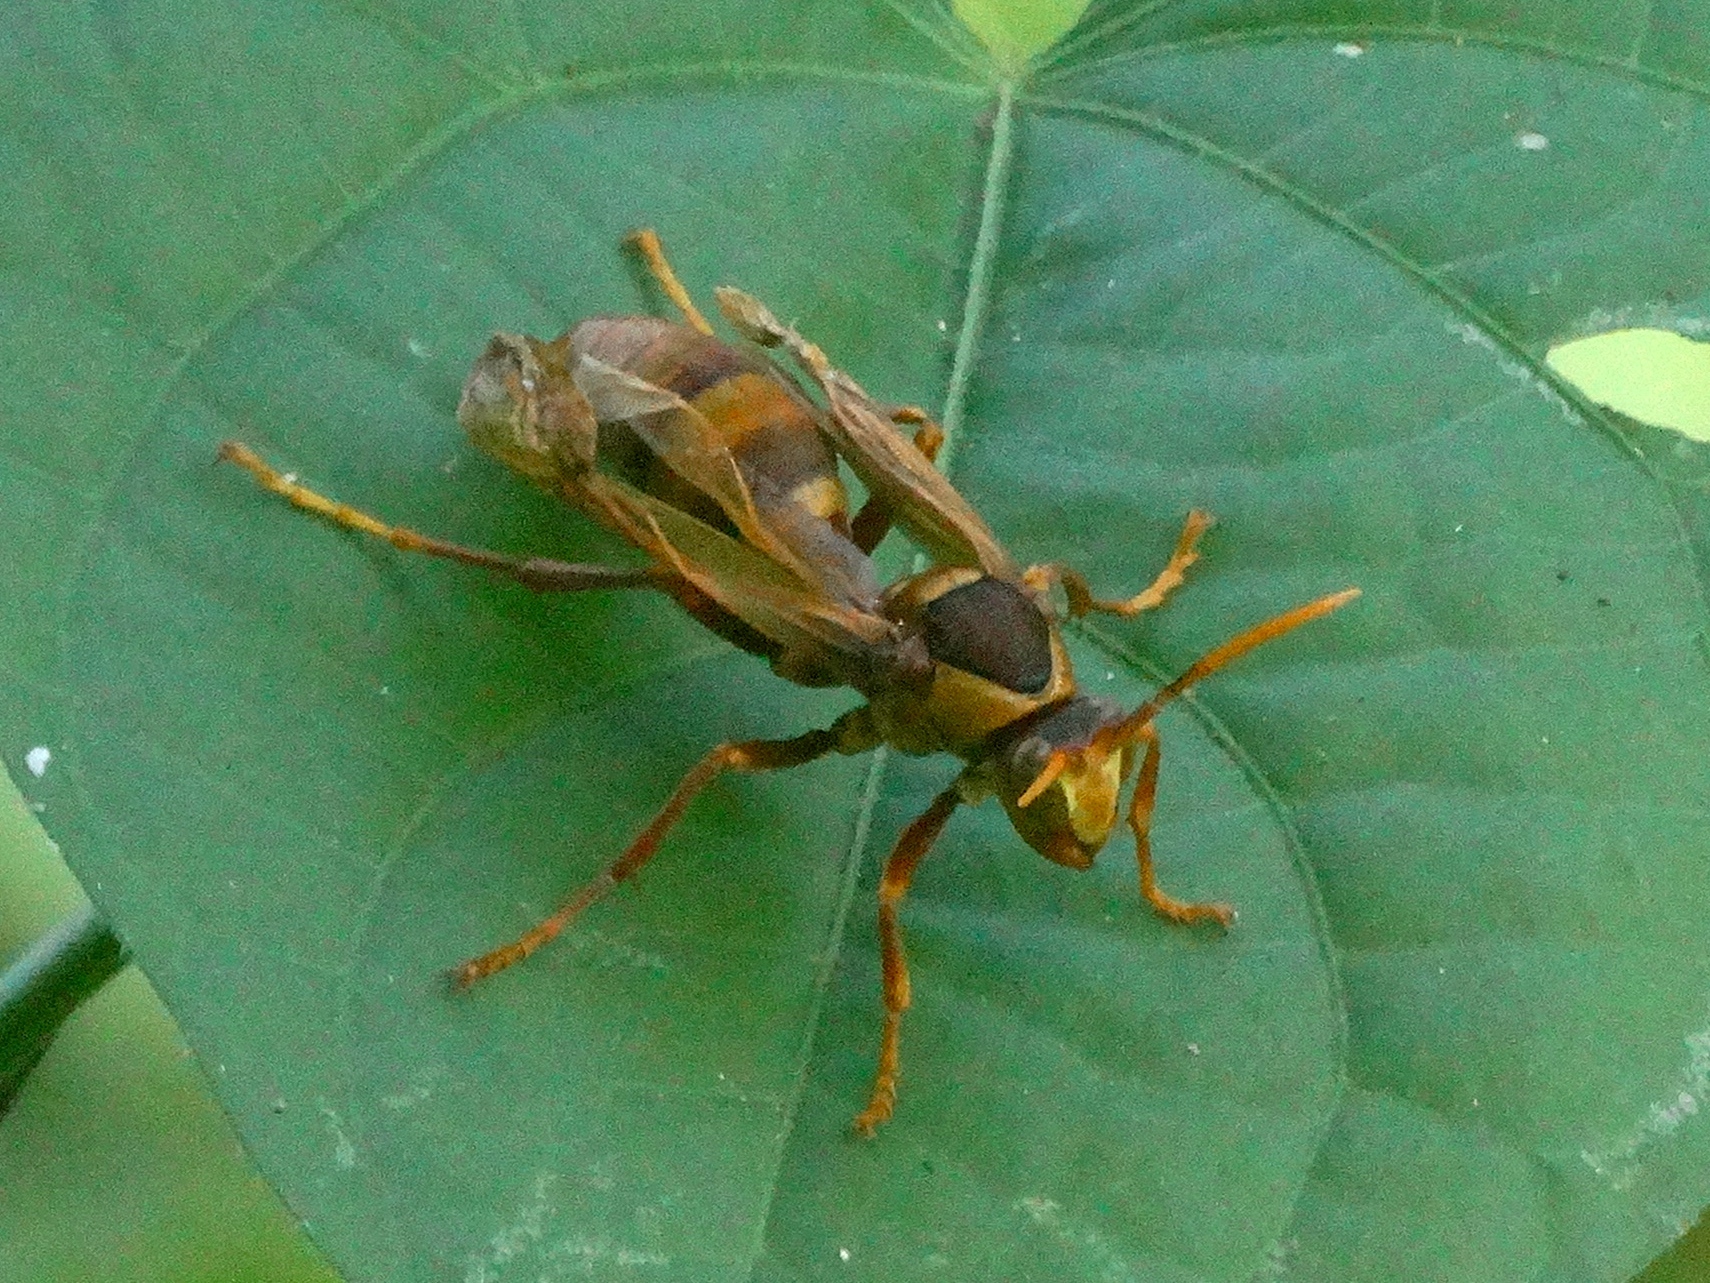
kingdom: Animalia
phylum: Arthropoda
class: Insecta
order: Hymenoptera
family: Eumenidae
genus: Polistes
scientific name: Polistes carnifex
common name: Paper wasp
